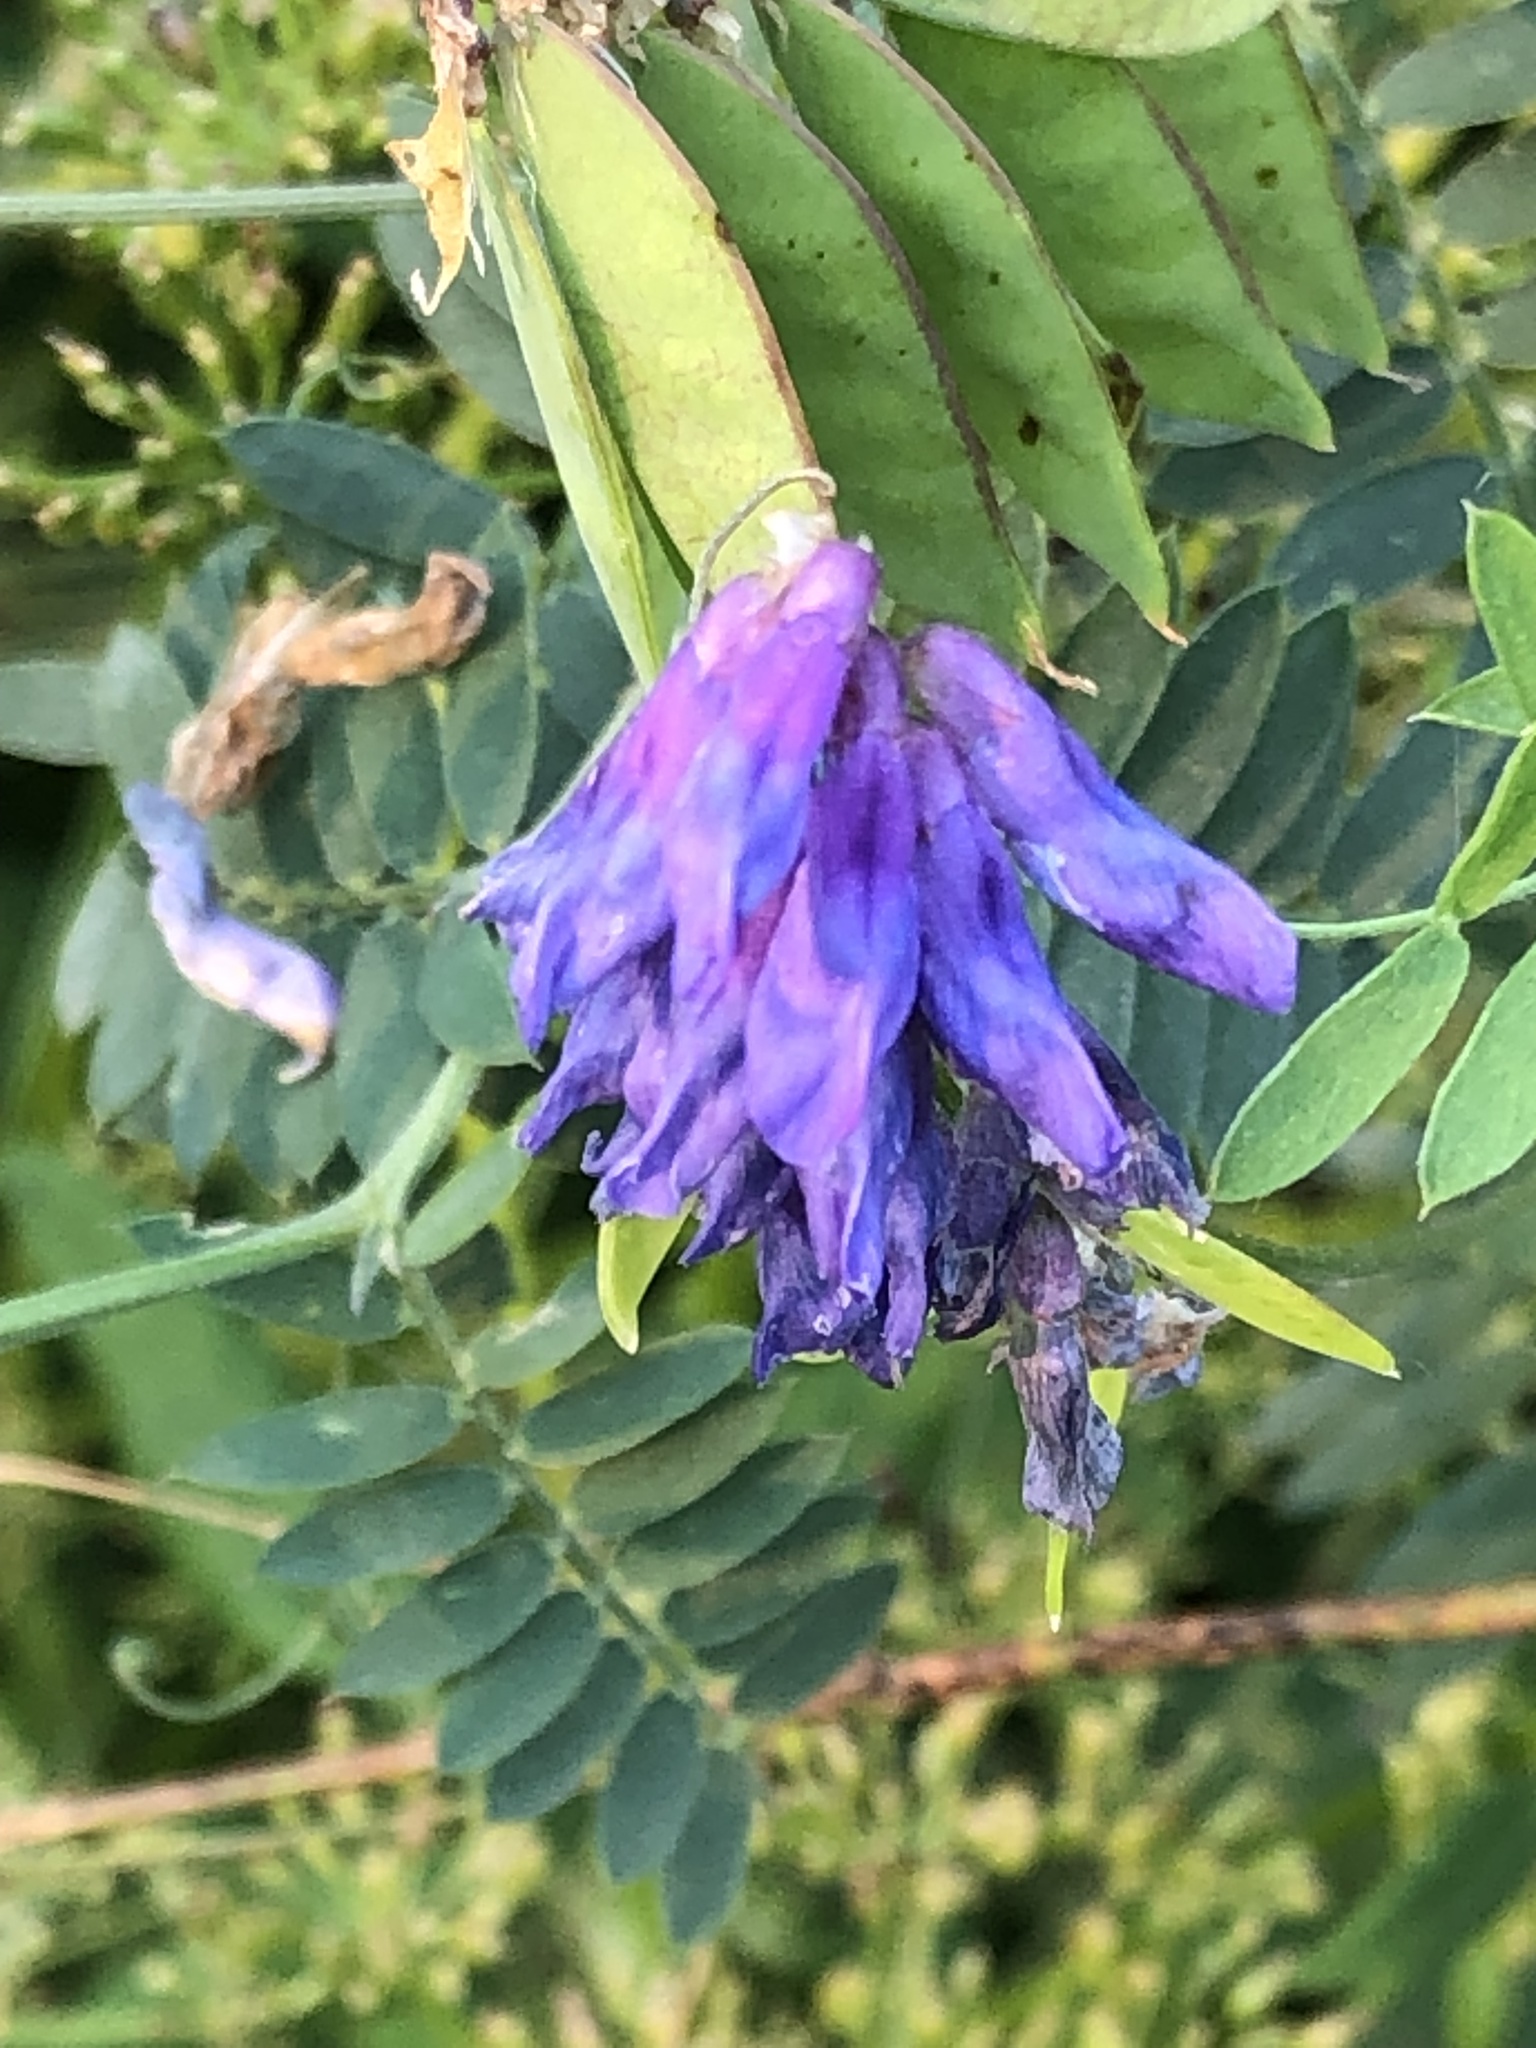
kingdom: Plantae
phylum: Tracheophyta
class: Magnoliopsida
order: Fabales
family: Fabaceae
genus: Vicia
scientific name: Vicia cracca
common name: Bird vetch
